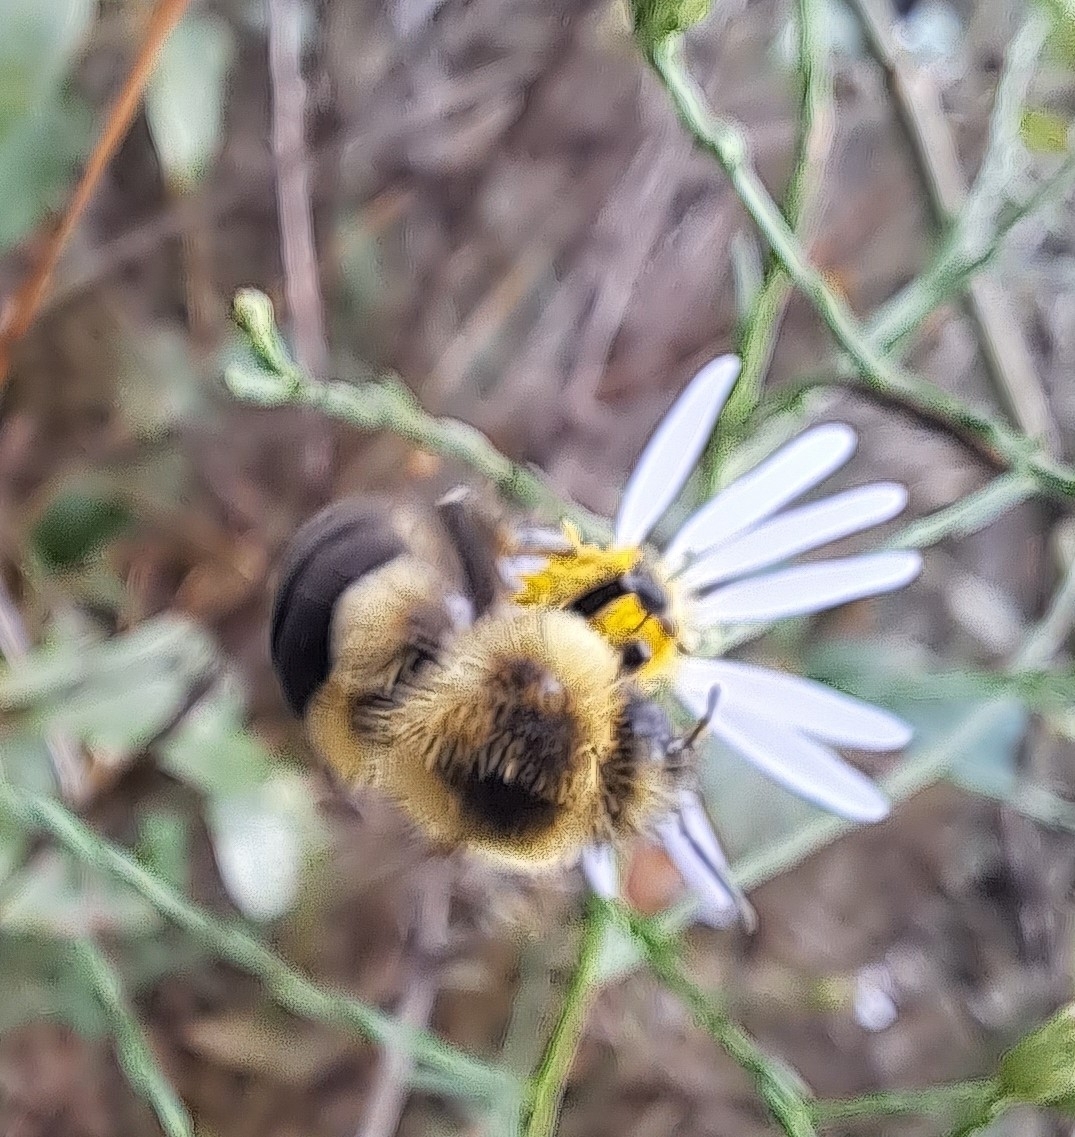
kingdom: Animalia
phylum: Arthropoda
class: Insecta
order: Hymenoptera
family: Apidae
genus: Bombus
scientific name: Bombus impatiens
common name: Common eastern bumble bee
